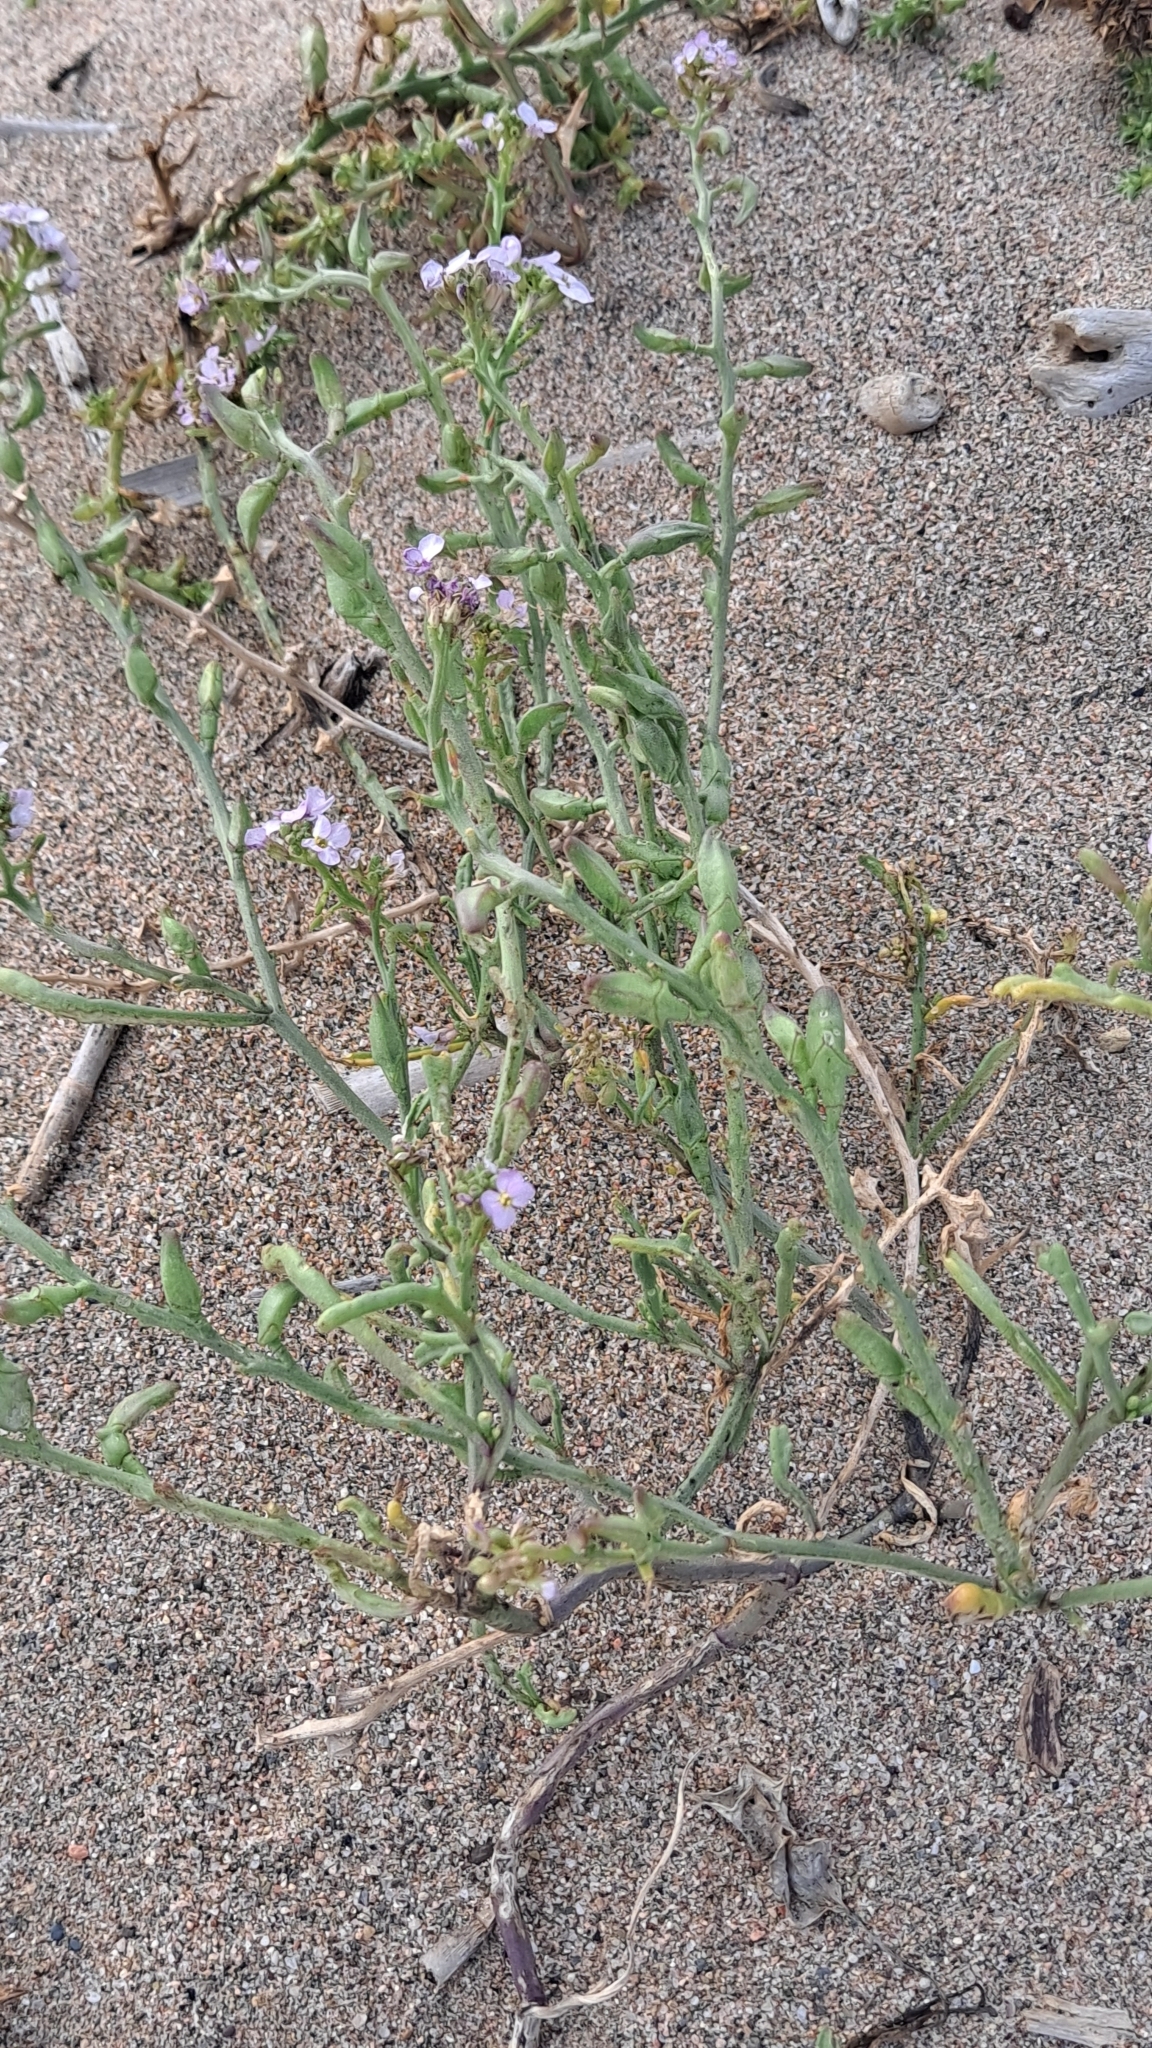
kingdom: Plantae
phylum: Tracheophyta
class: Magnoliopsida
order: Brassicales
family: Brassicaceae
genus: Cakile
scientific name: Cakile maritima
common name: Sea rocket
